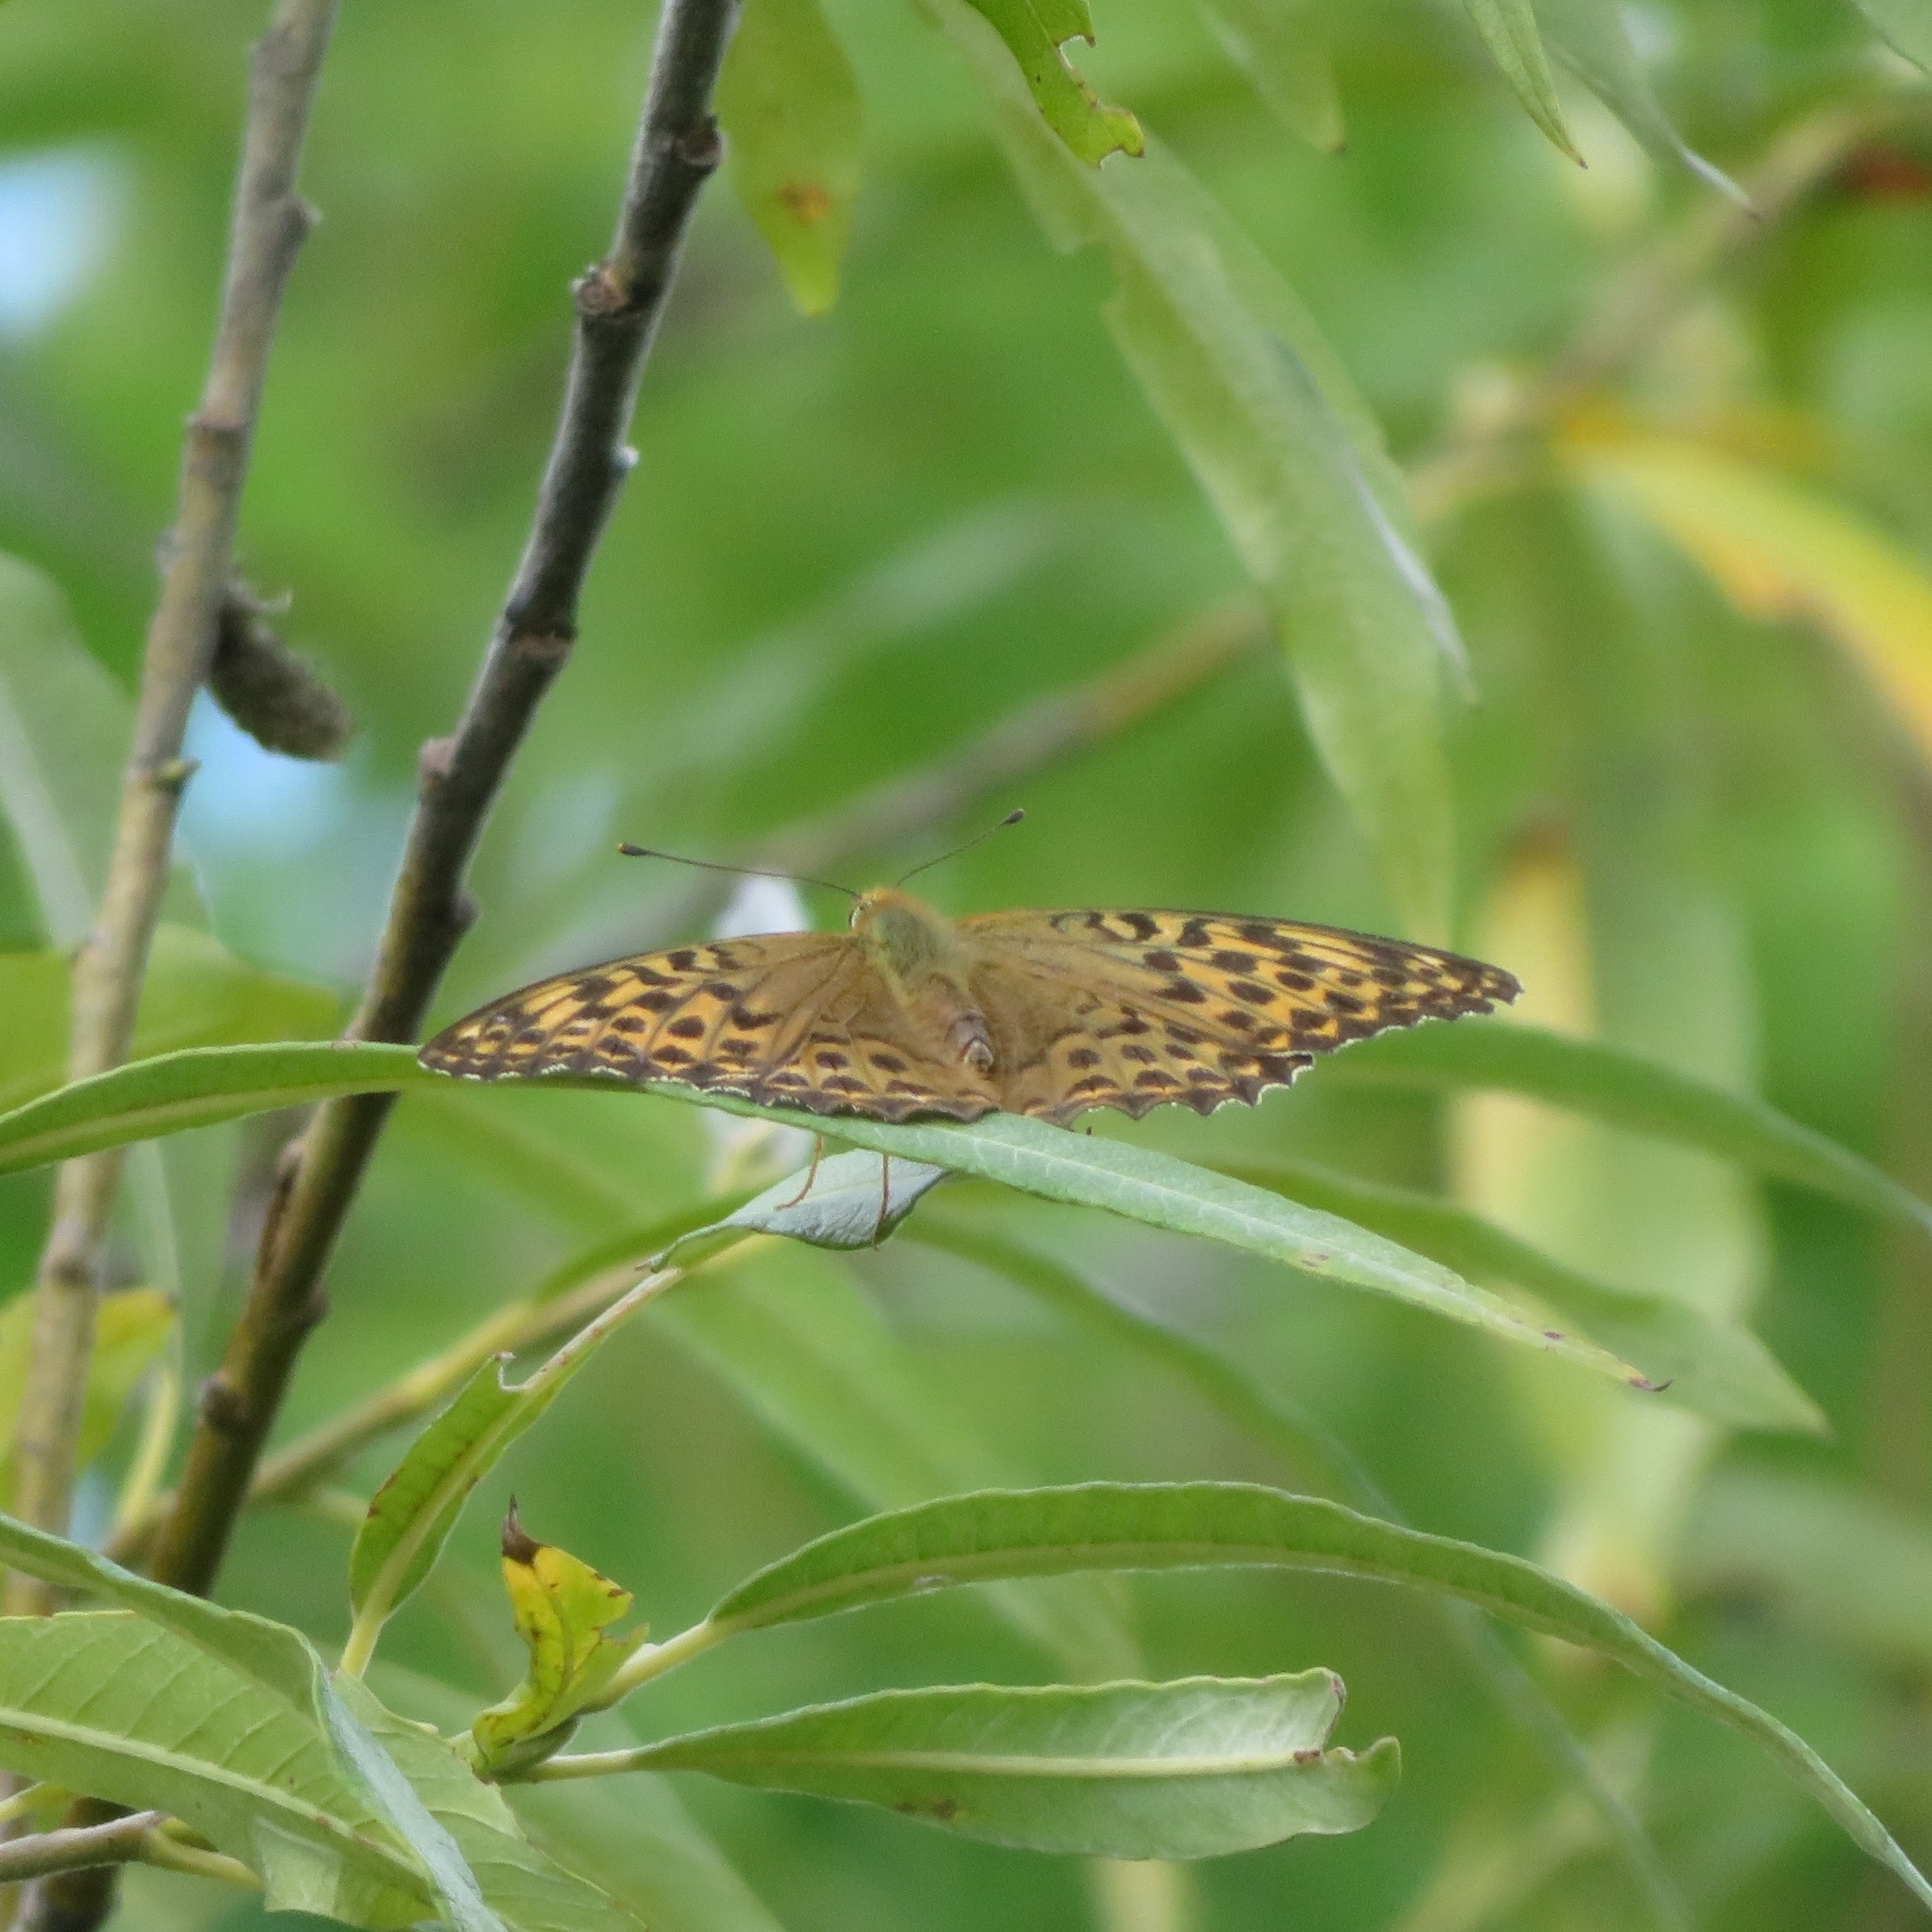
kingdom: Animalia
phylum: Arthropoda
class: Insecta
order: Lepidoptera
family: Nymphalidae
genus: Argynnis
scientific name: Argynnis paphia
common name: Silver-washed fritillary
